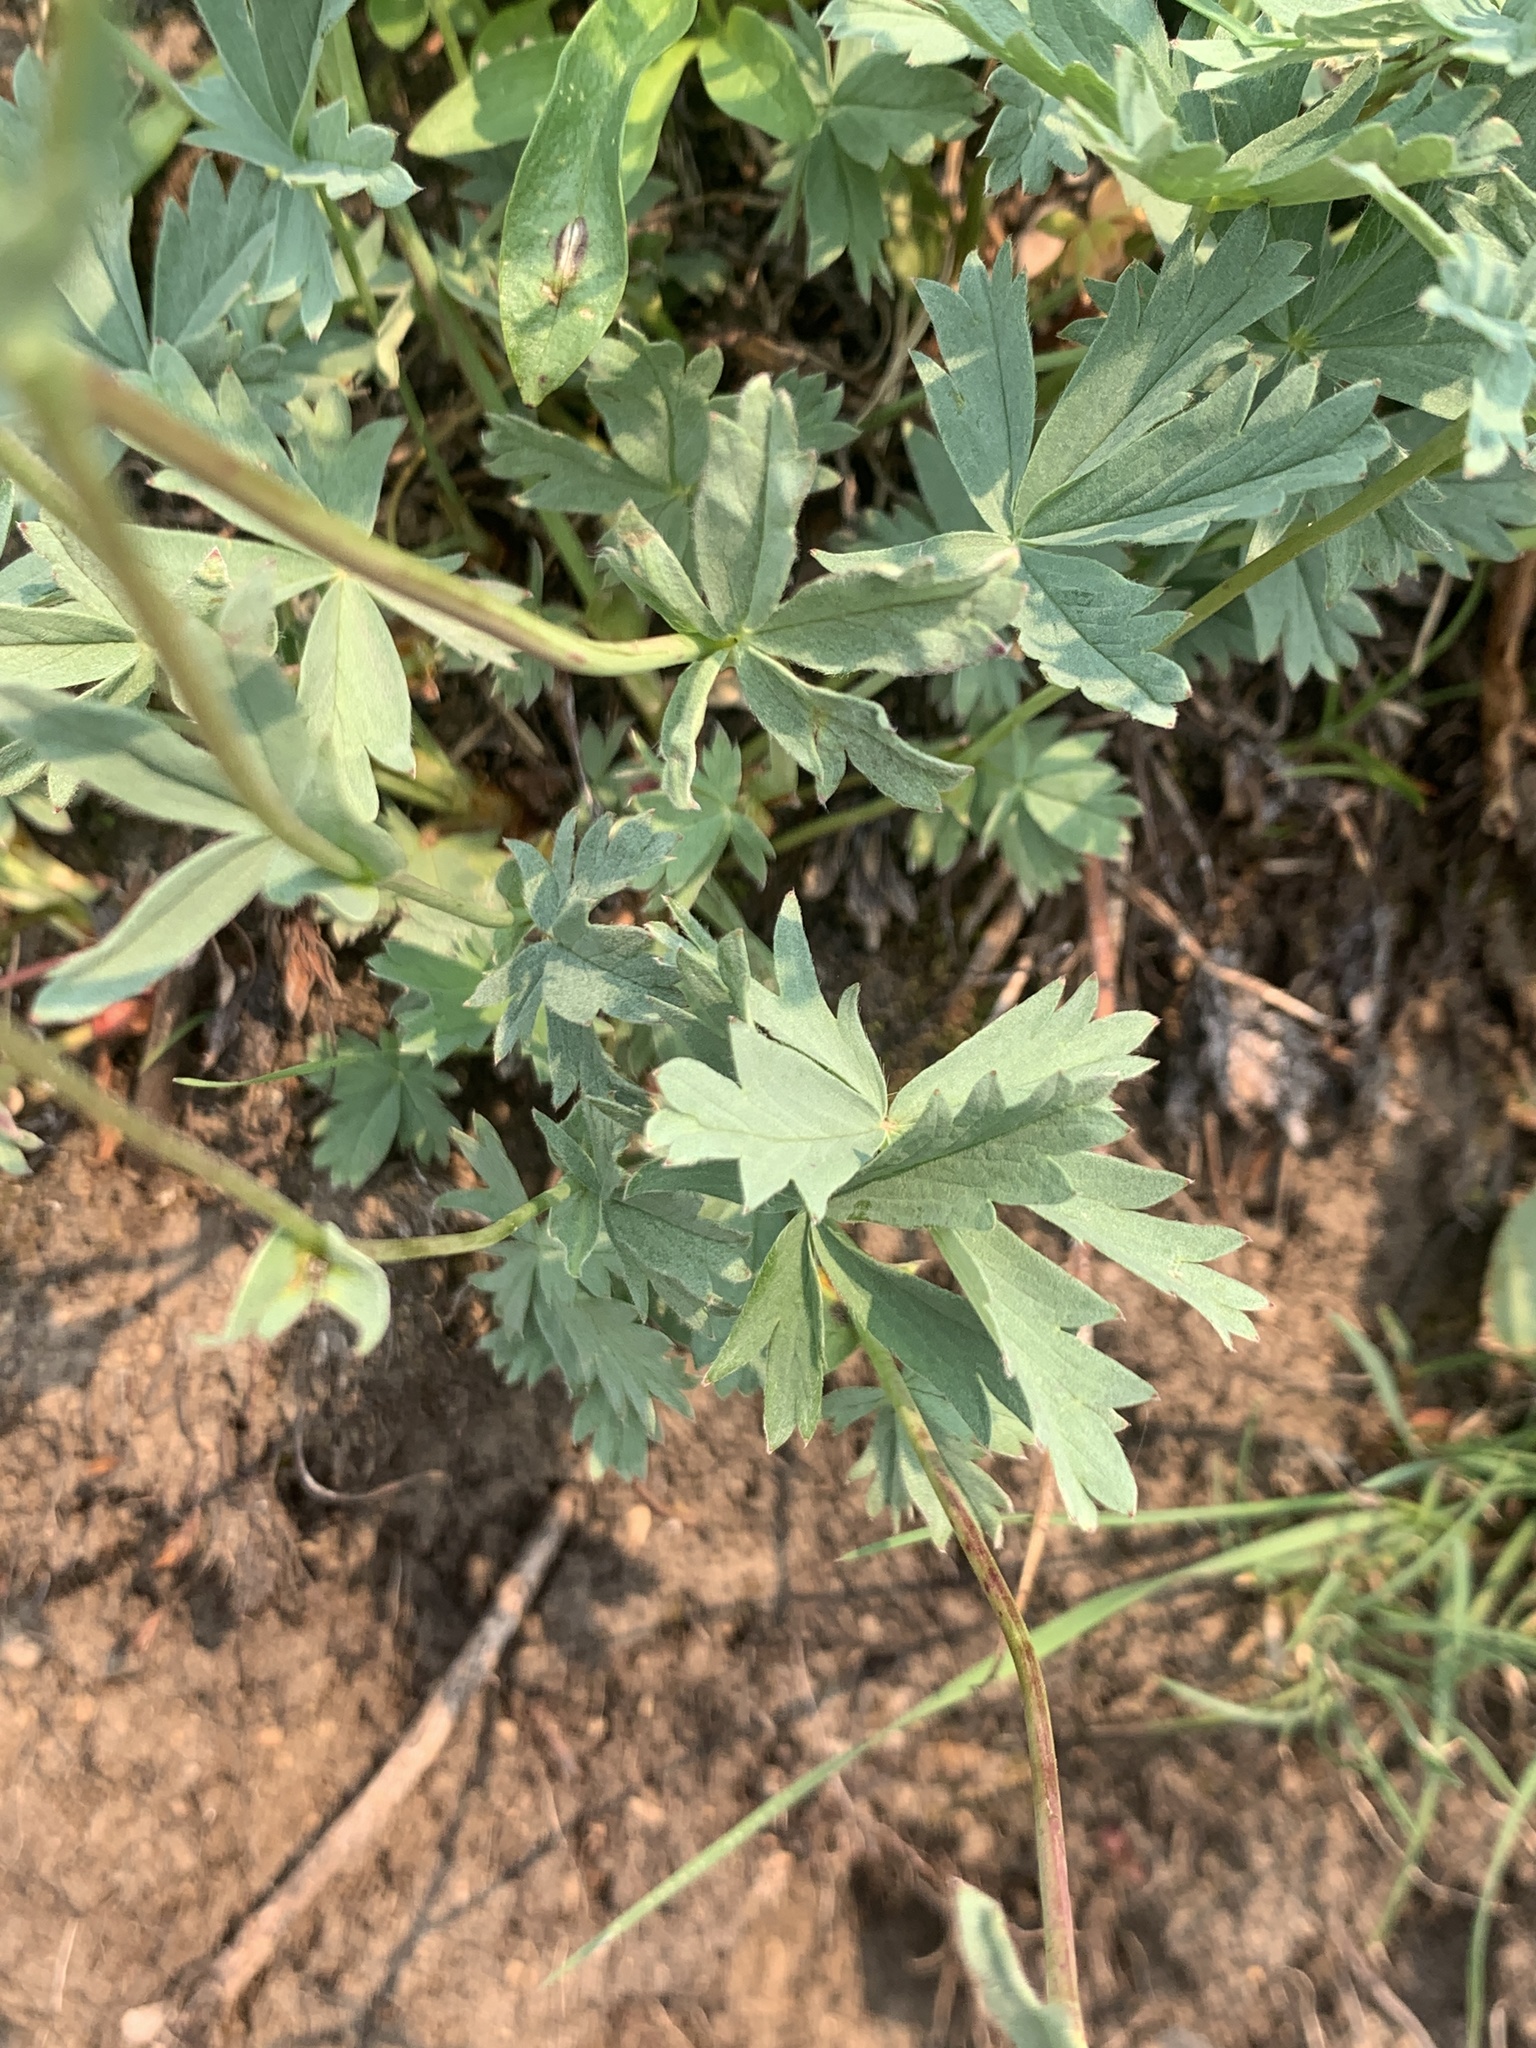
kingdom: Plantae
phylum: Tracheophyta
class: Magnoliopsida
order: Rosales
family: Rosaceae
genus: Potentilla
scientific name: Potentilla glaucophylla
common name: Blue-leaved cinquefoil
